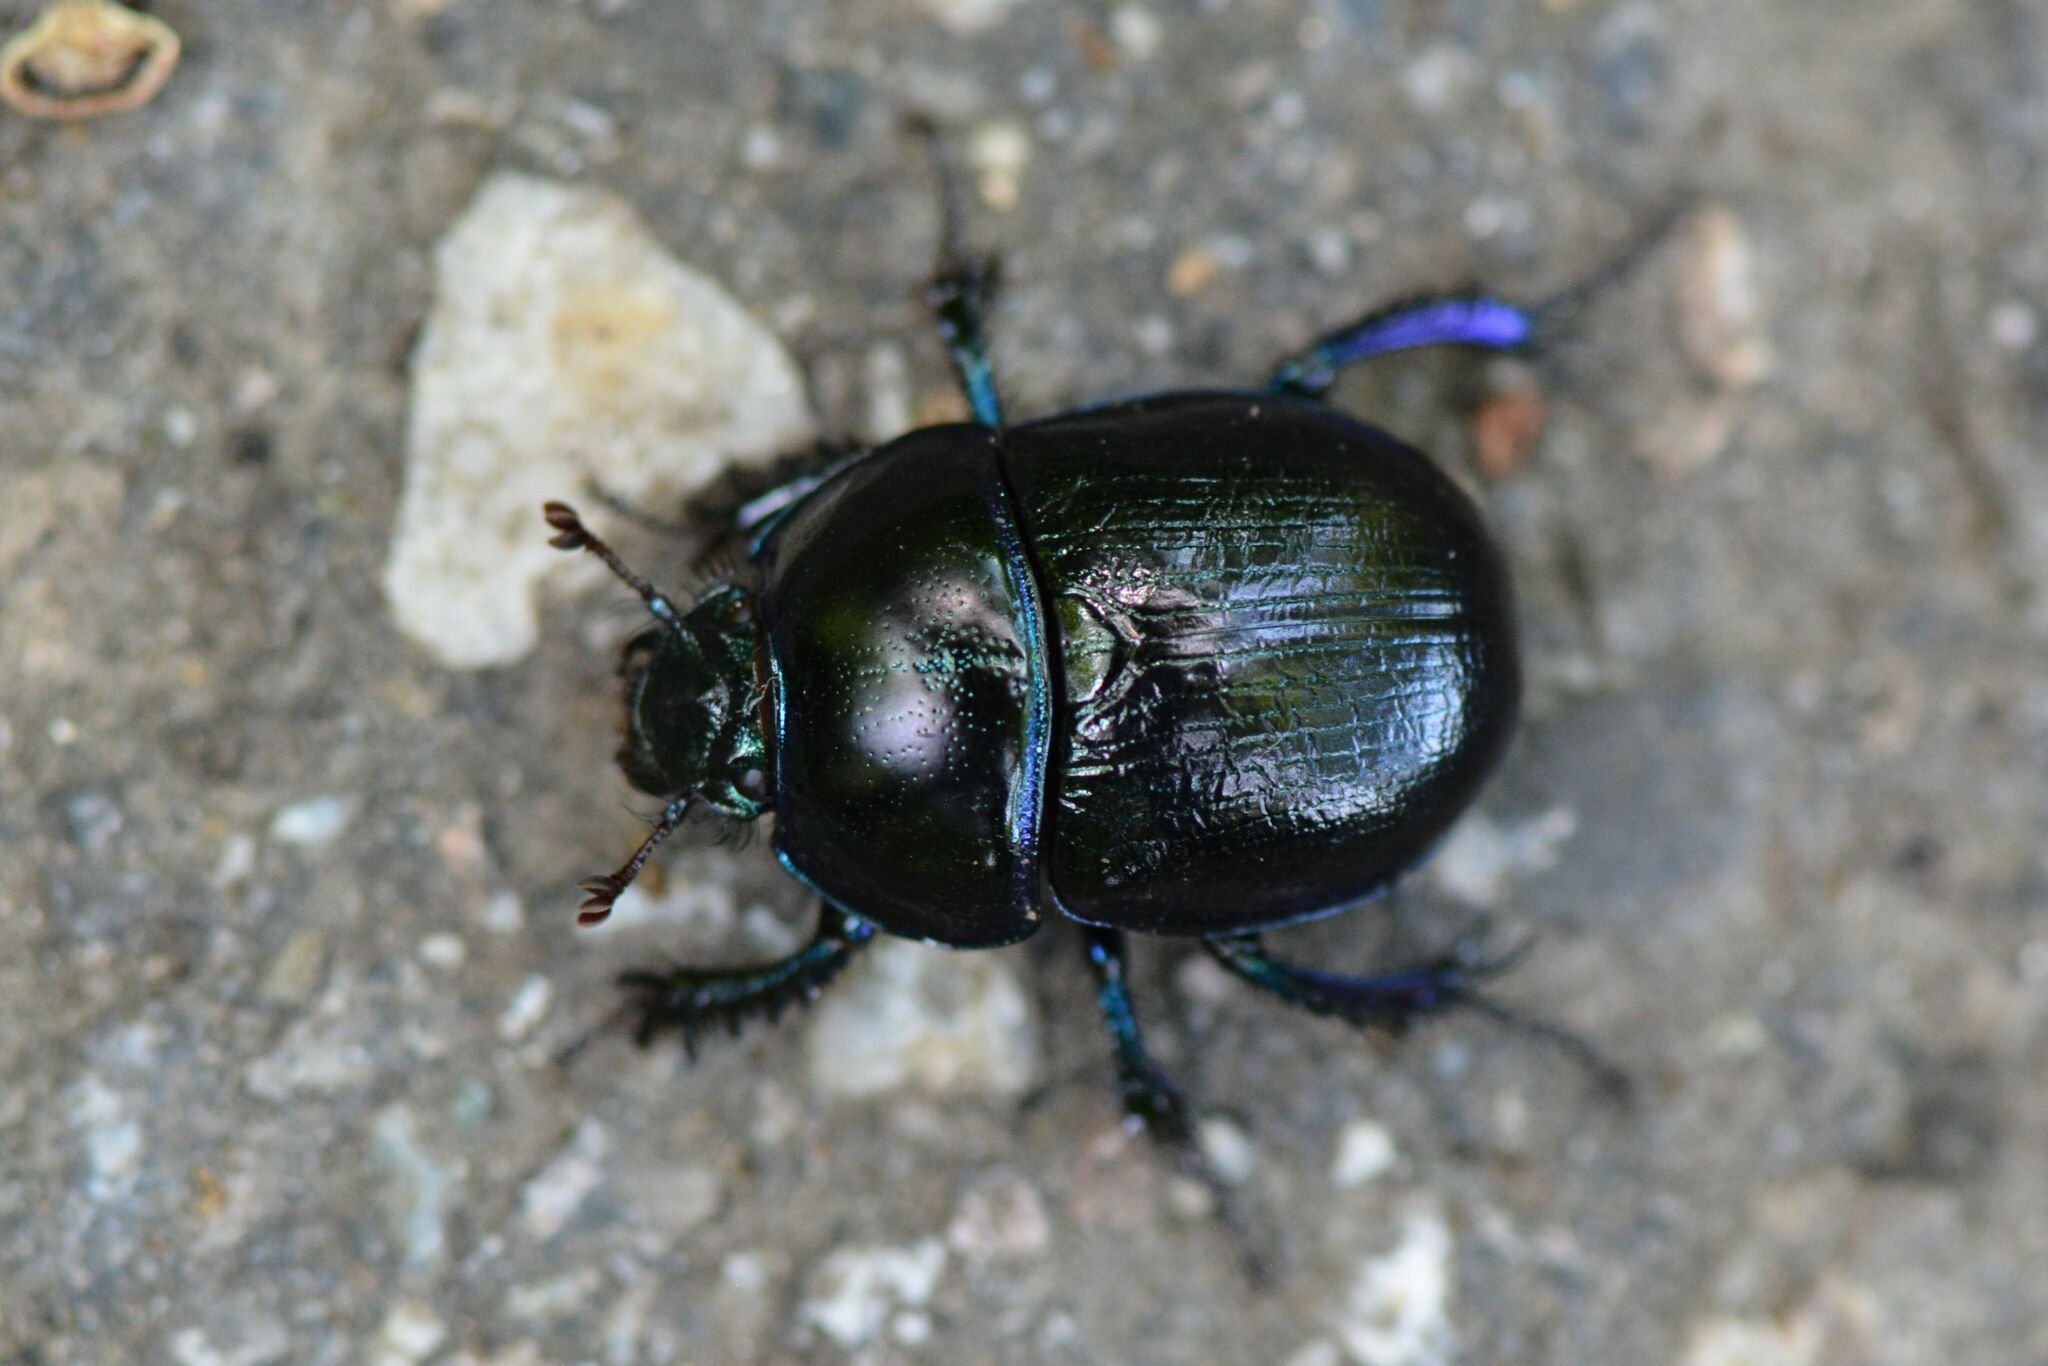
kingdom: Animalia
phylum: Arthropoda
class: Insecta
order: Coleoptera
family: Geotrupidae
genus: Anoplotrupes
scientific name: Anoplotrupes stercorosus
